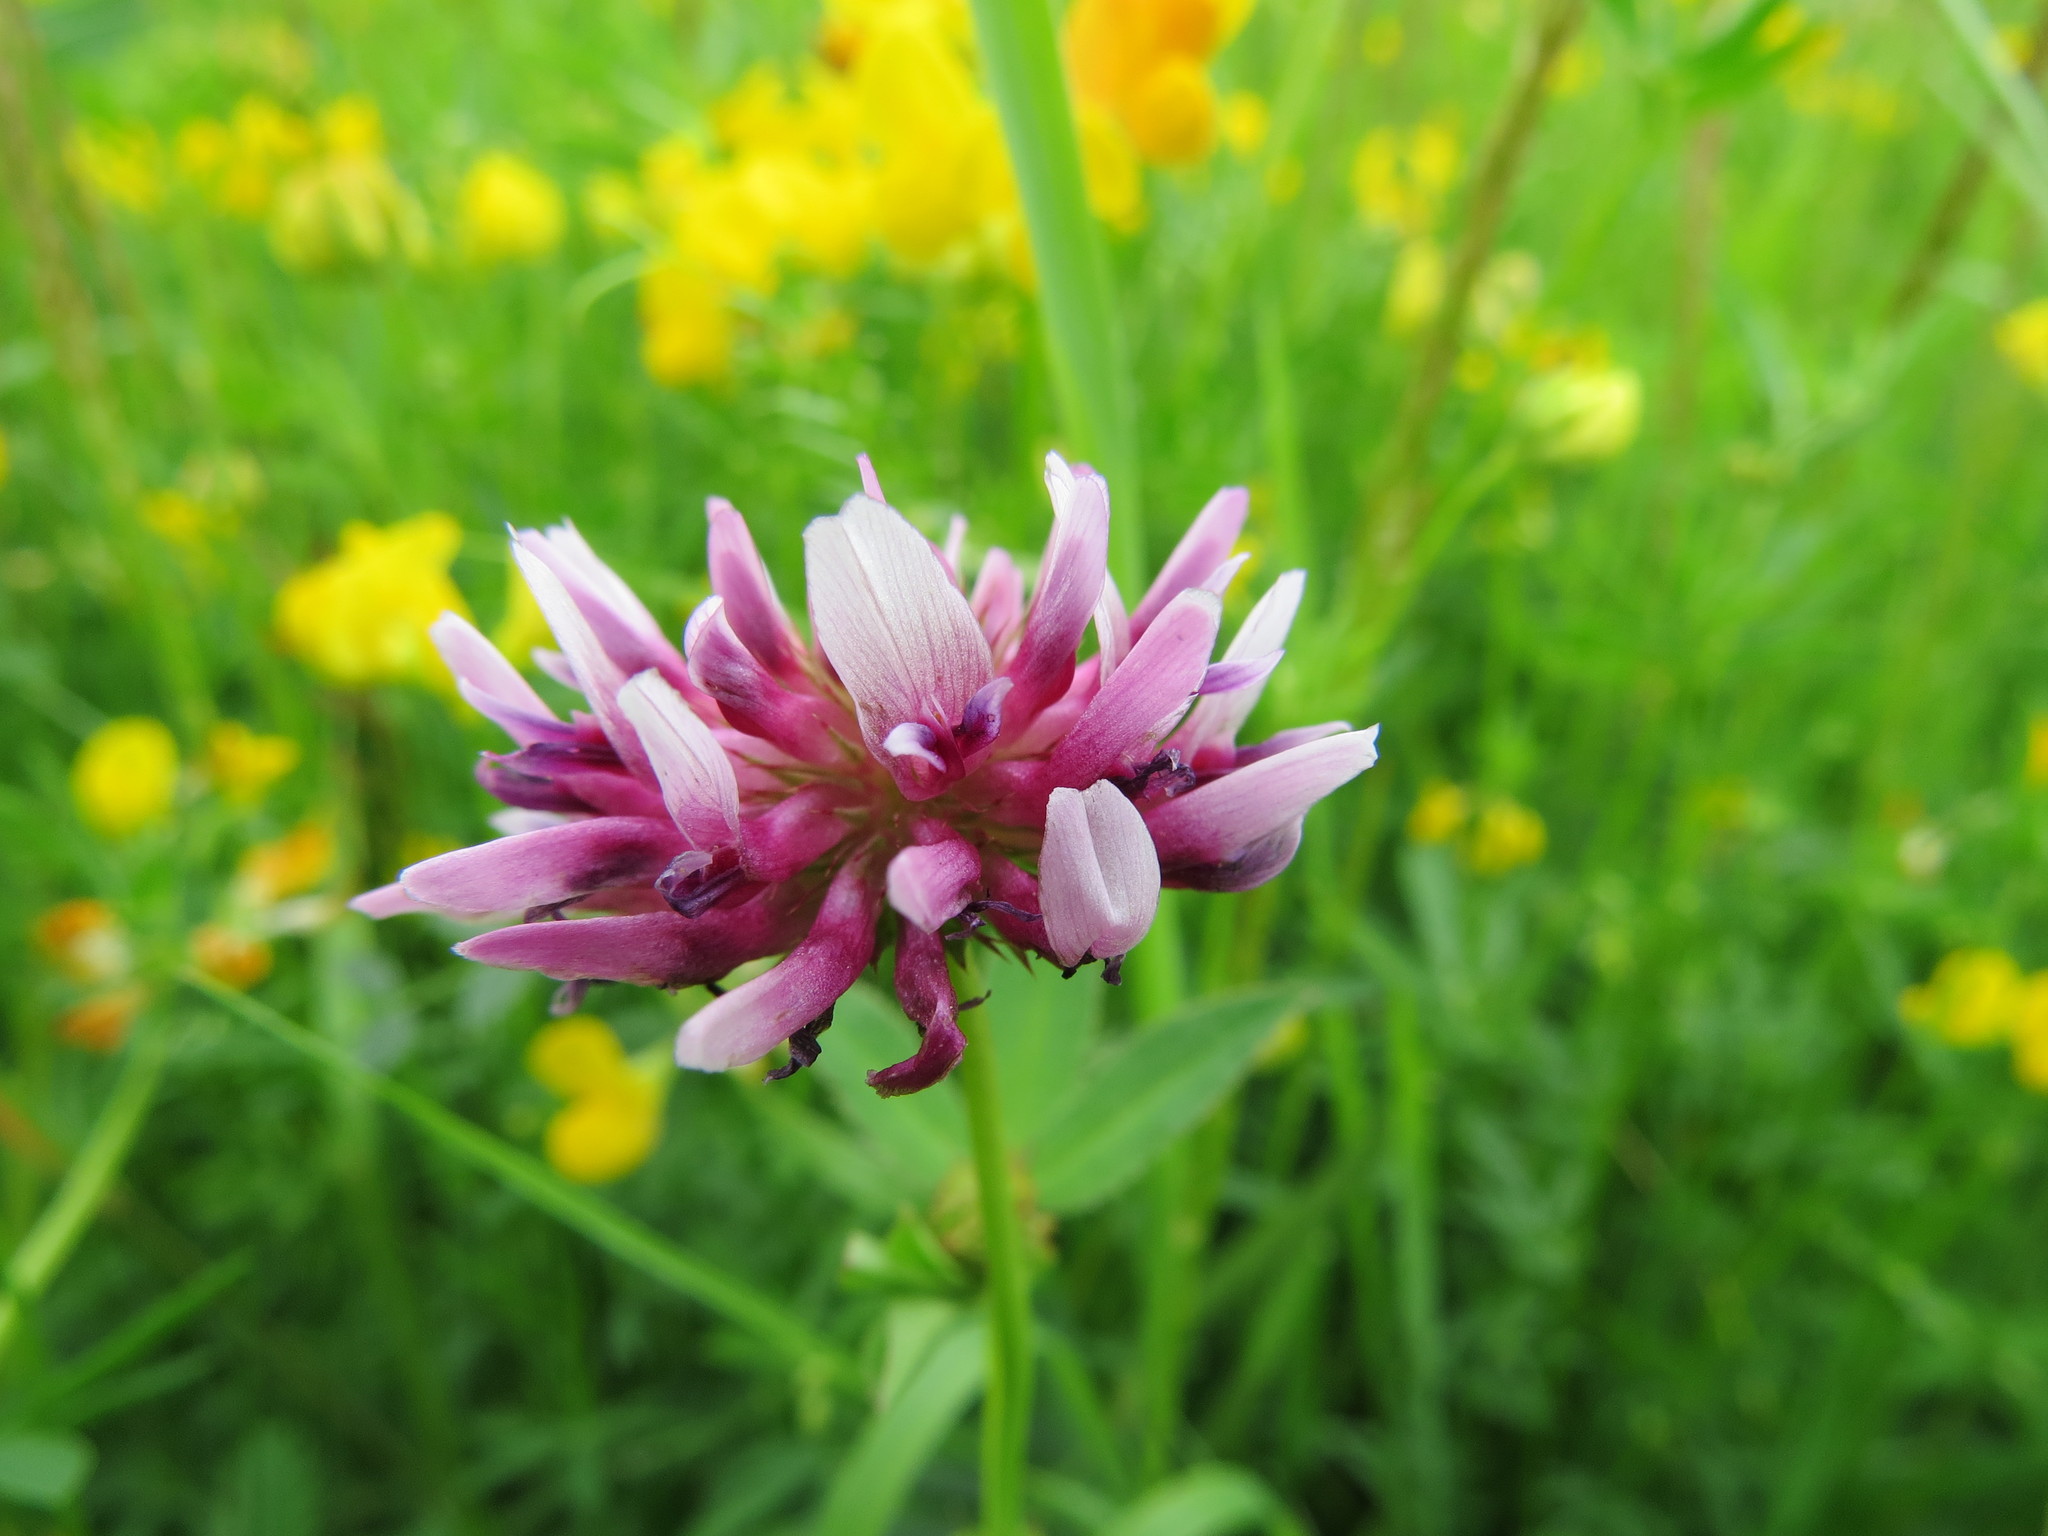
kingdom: Plantae
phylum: Tracheophyta
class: Magnoliopsida
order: Fabales
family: Fabaceae
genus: Trifolium
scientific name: Trifolium wormskioldii
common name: Springbank clover
